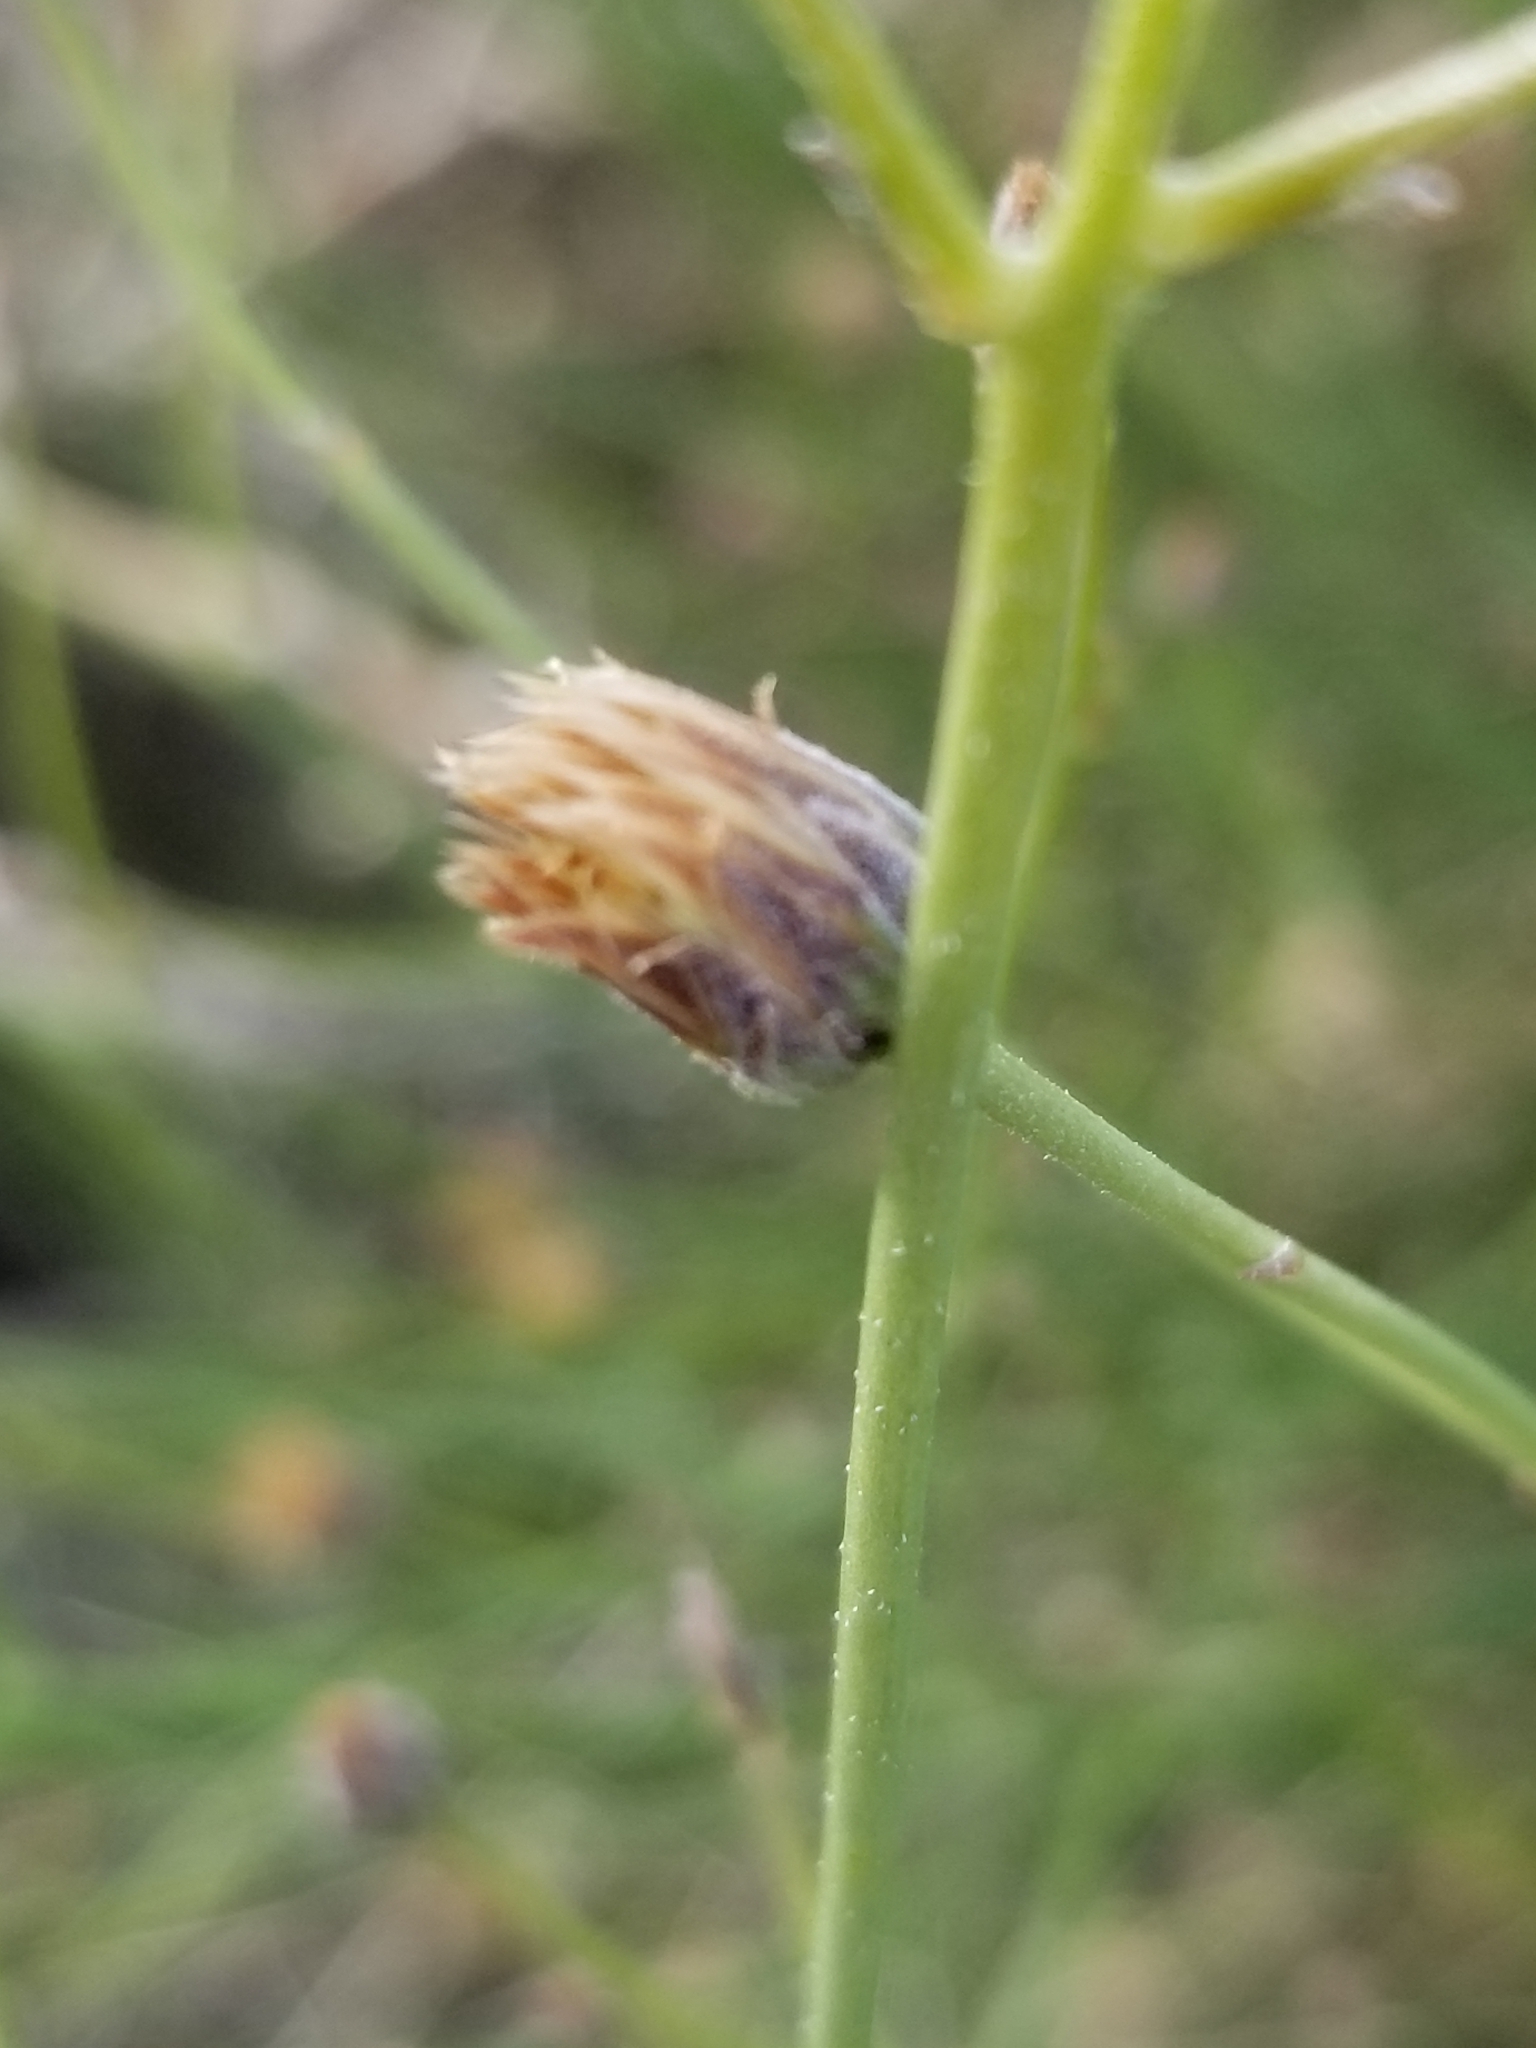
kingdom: Plantae
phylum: Tracheophyta
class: Magnoliopsida
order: Asterales
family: Asteraceae
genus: Bebbia
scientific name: Bebbia juncea
